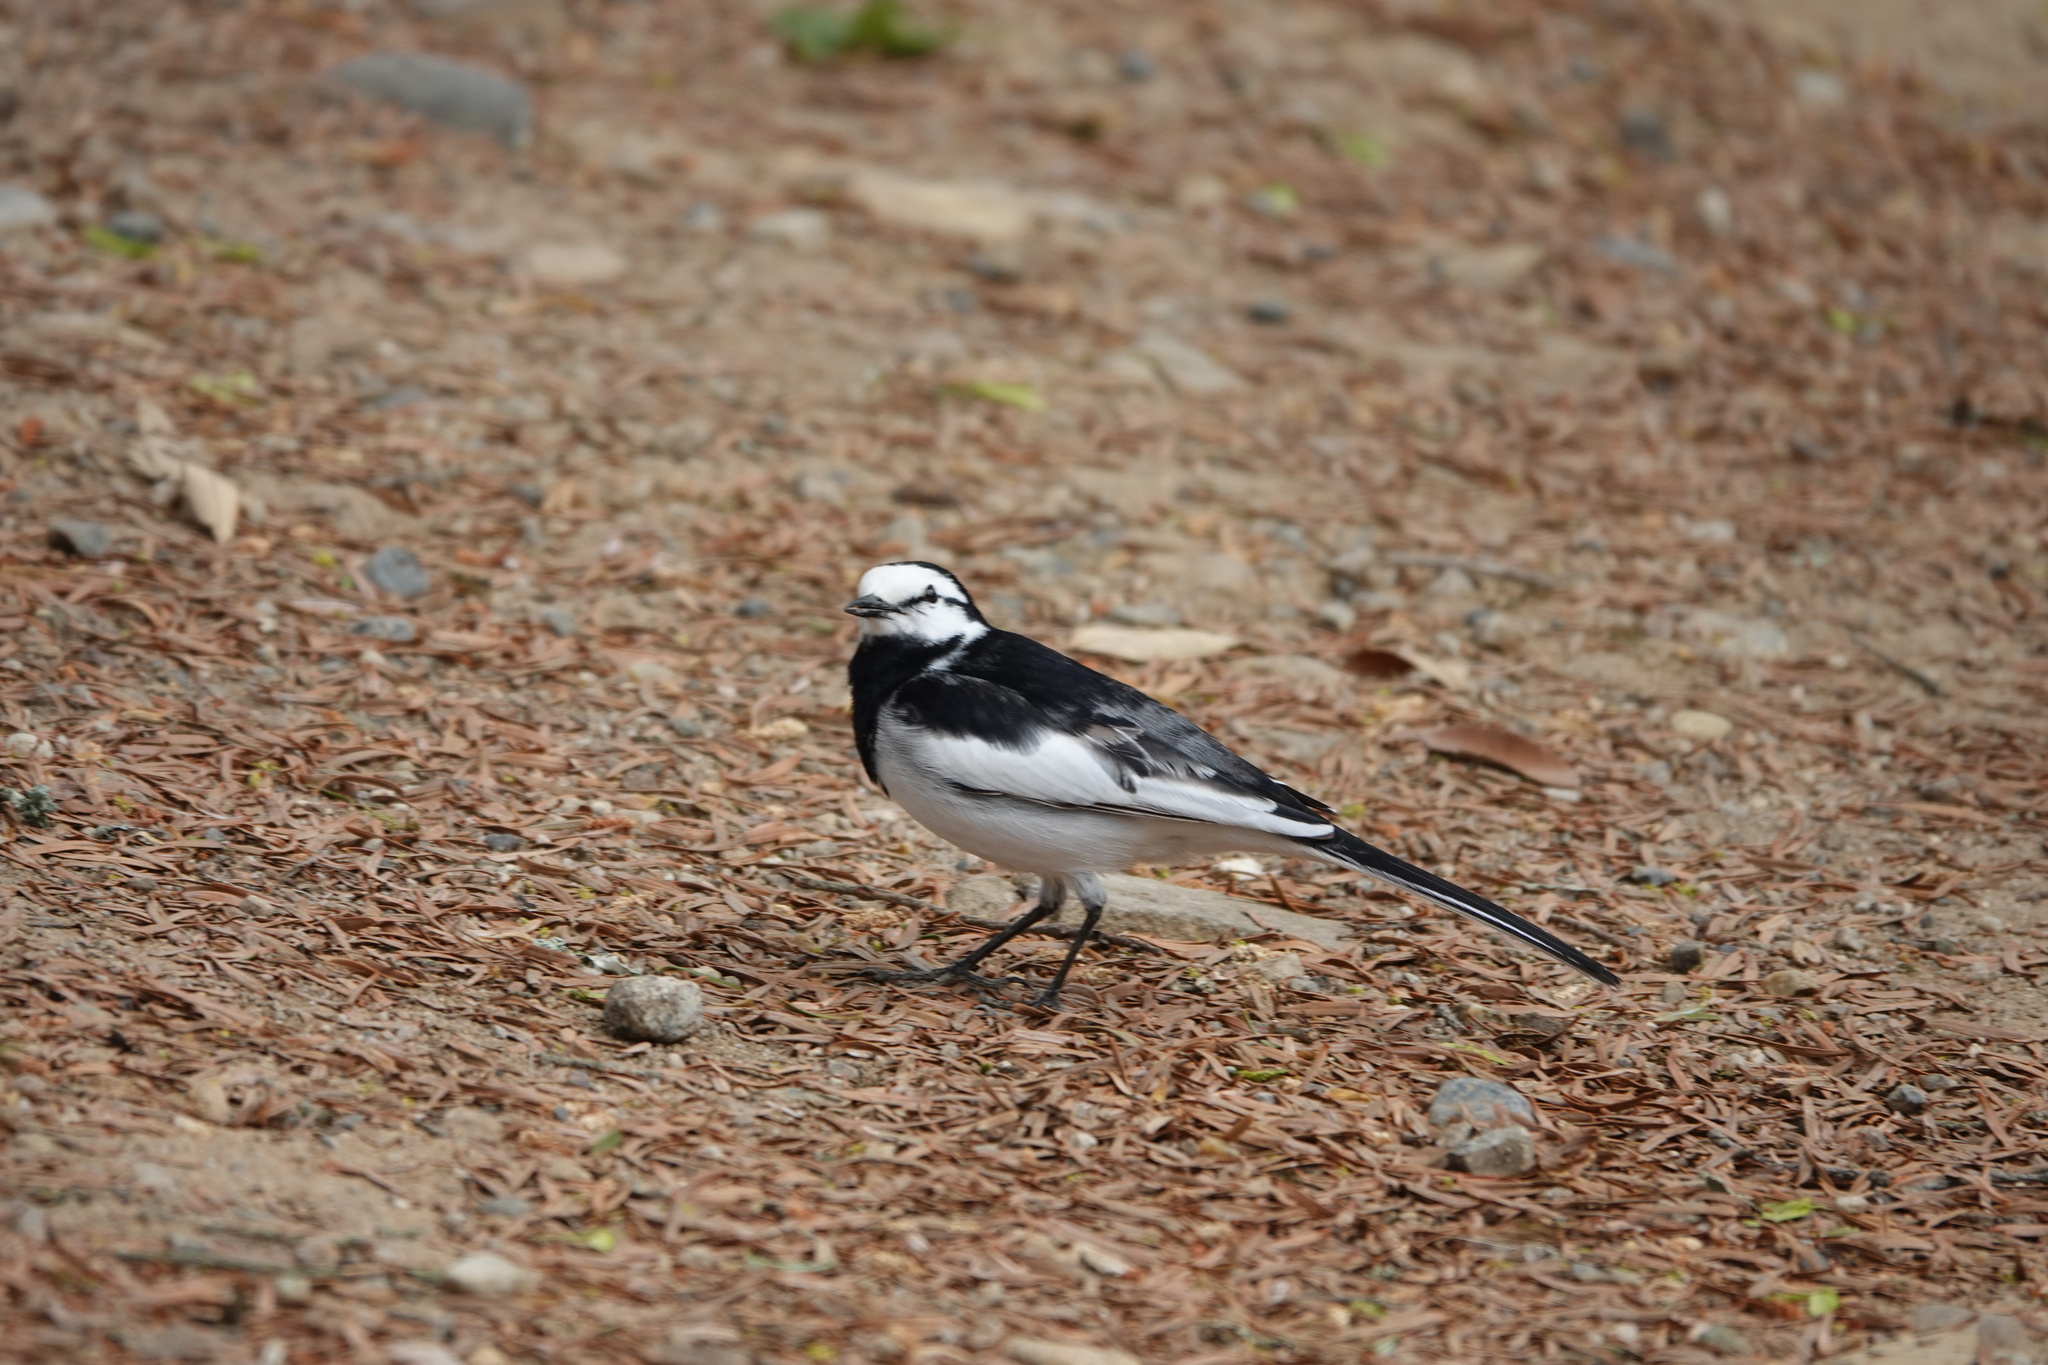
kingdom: Animalia
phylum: Chordata
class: Aves
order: Passeriformes
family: Motacillidae
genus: Motacilla
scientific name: Motacilla alba
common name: White wagtail
